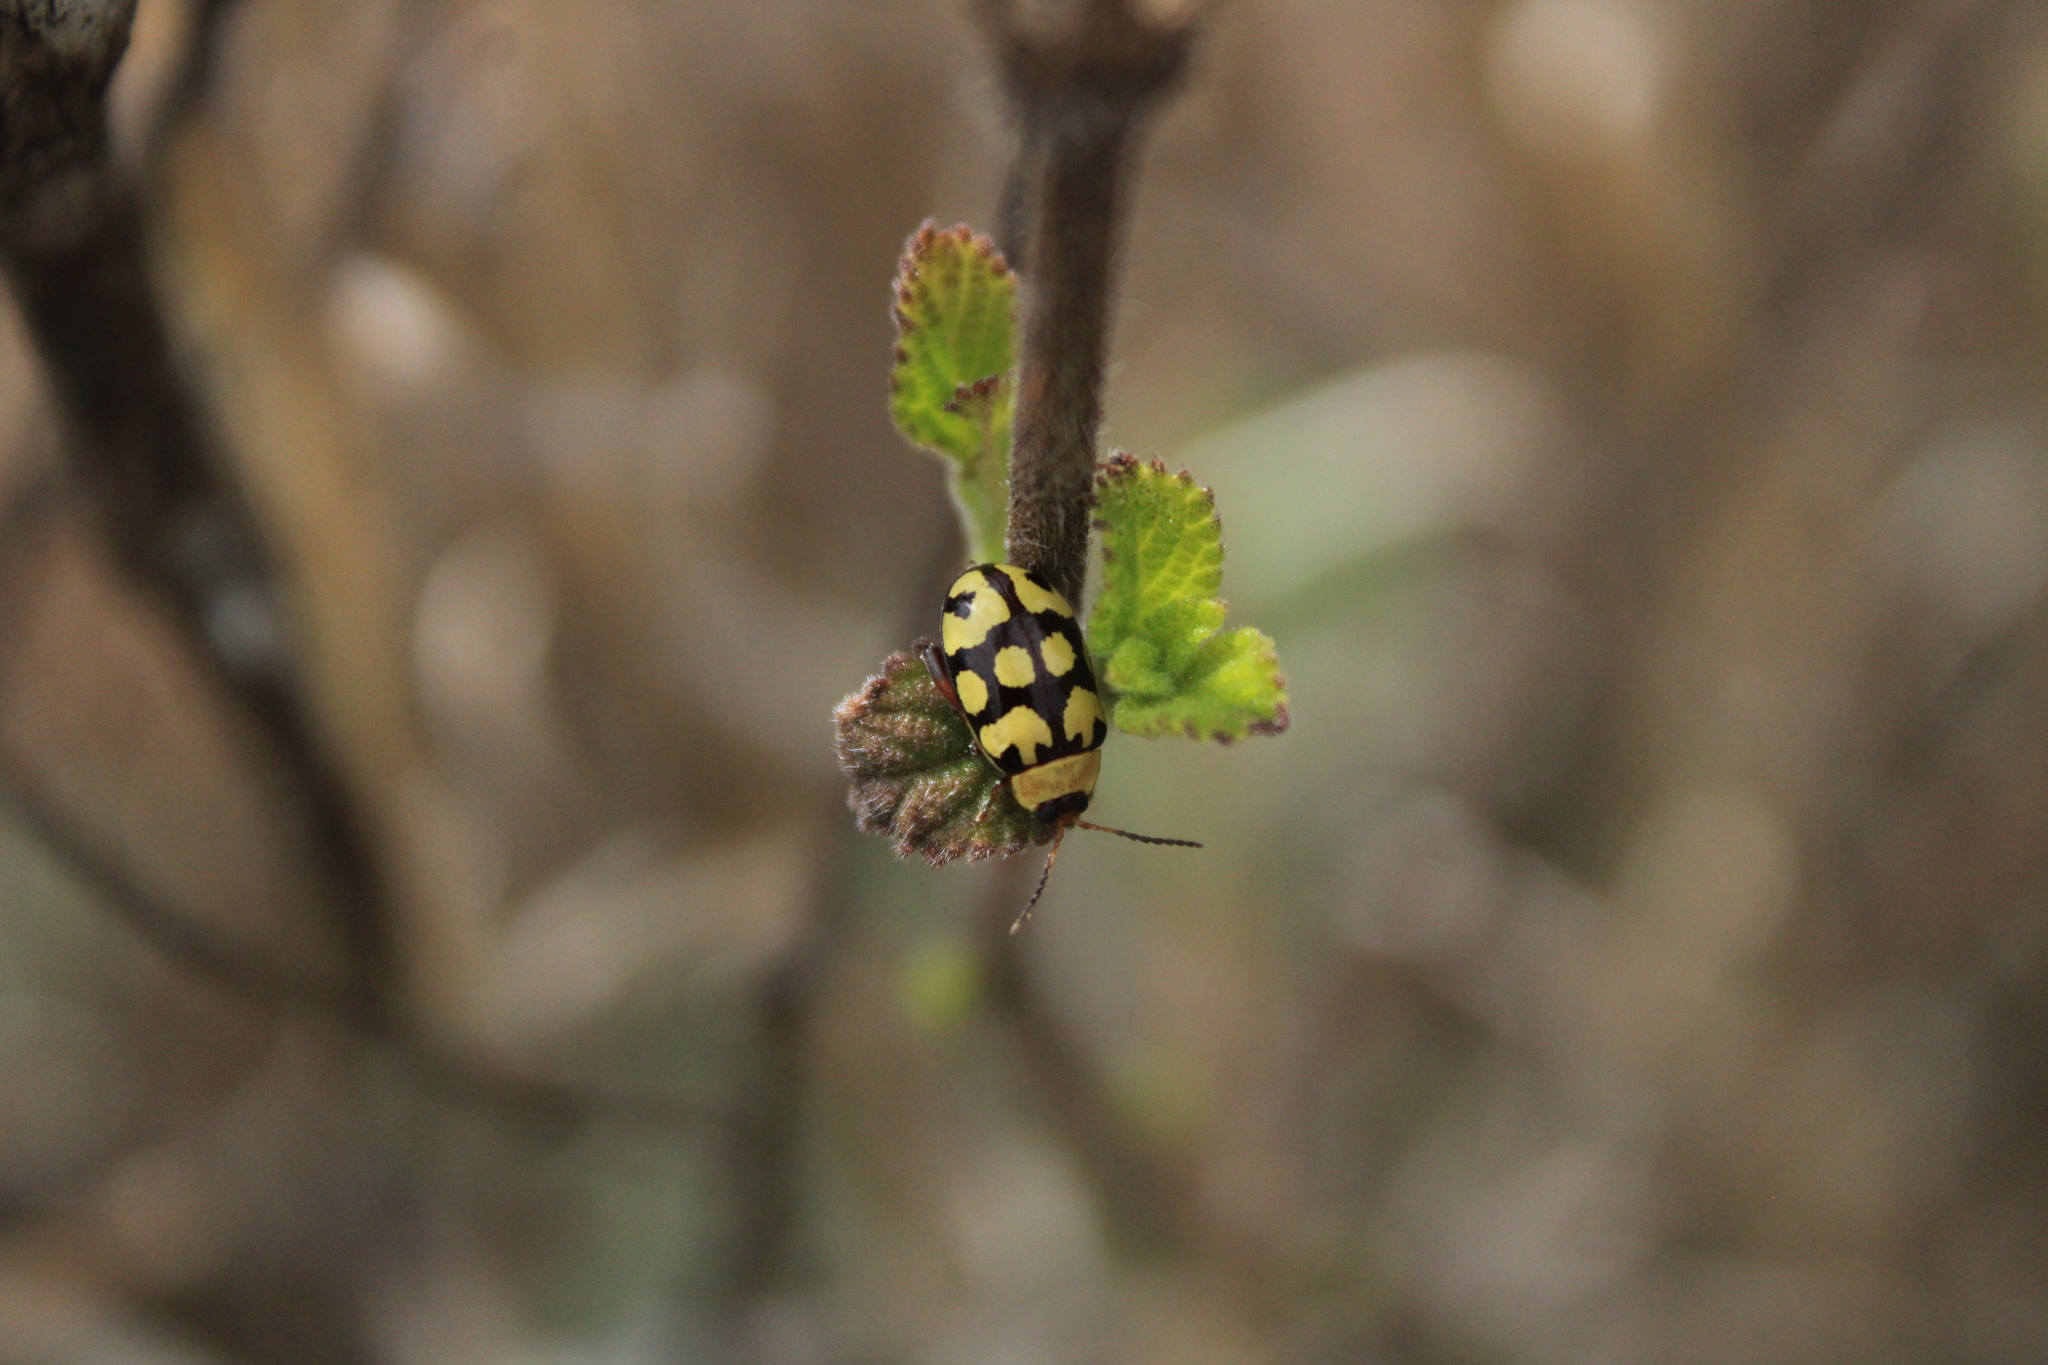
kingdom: Animalia
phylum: Arthropoda
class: Insecta
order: Coleoptera
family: Chrysomelidae
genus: Alagoasa
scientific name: Alagoasa
